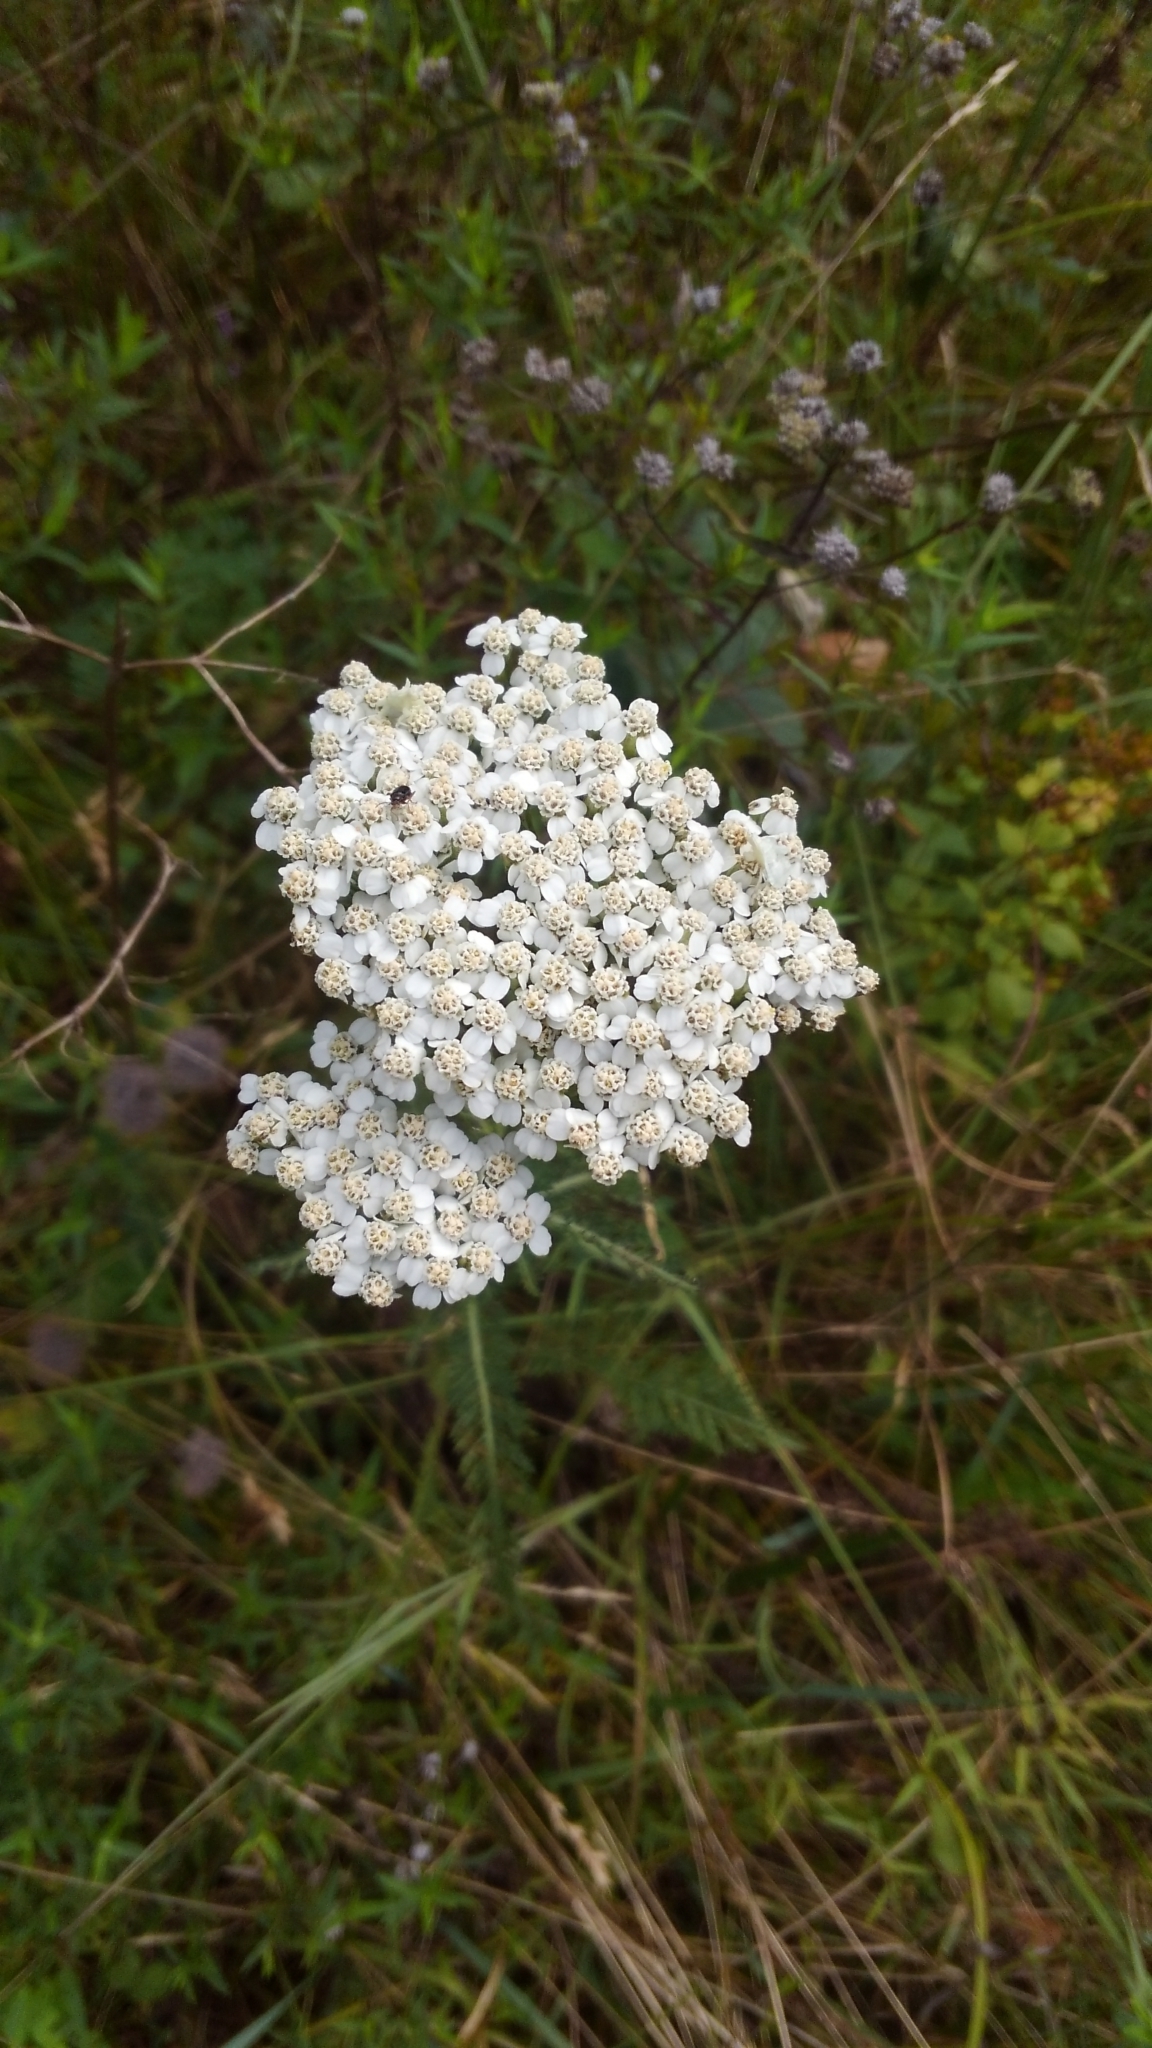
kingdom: Plantae
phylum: Tracheophyta
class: Magnoliopsida
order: Asterales
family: Asteraceae
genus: Achillea
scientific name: Achillea millefolium
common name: Yarrow
